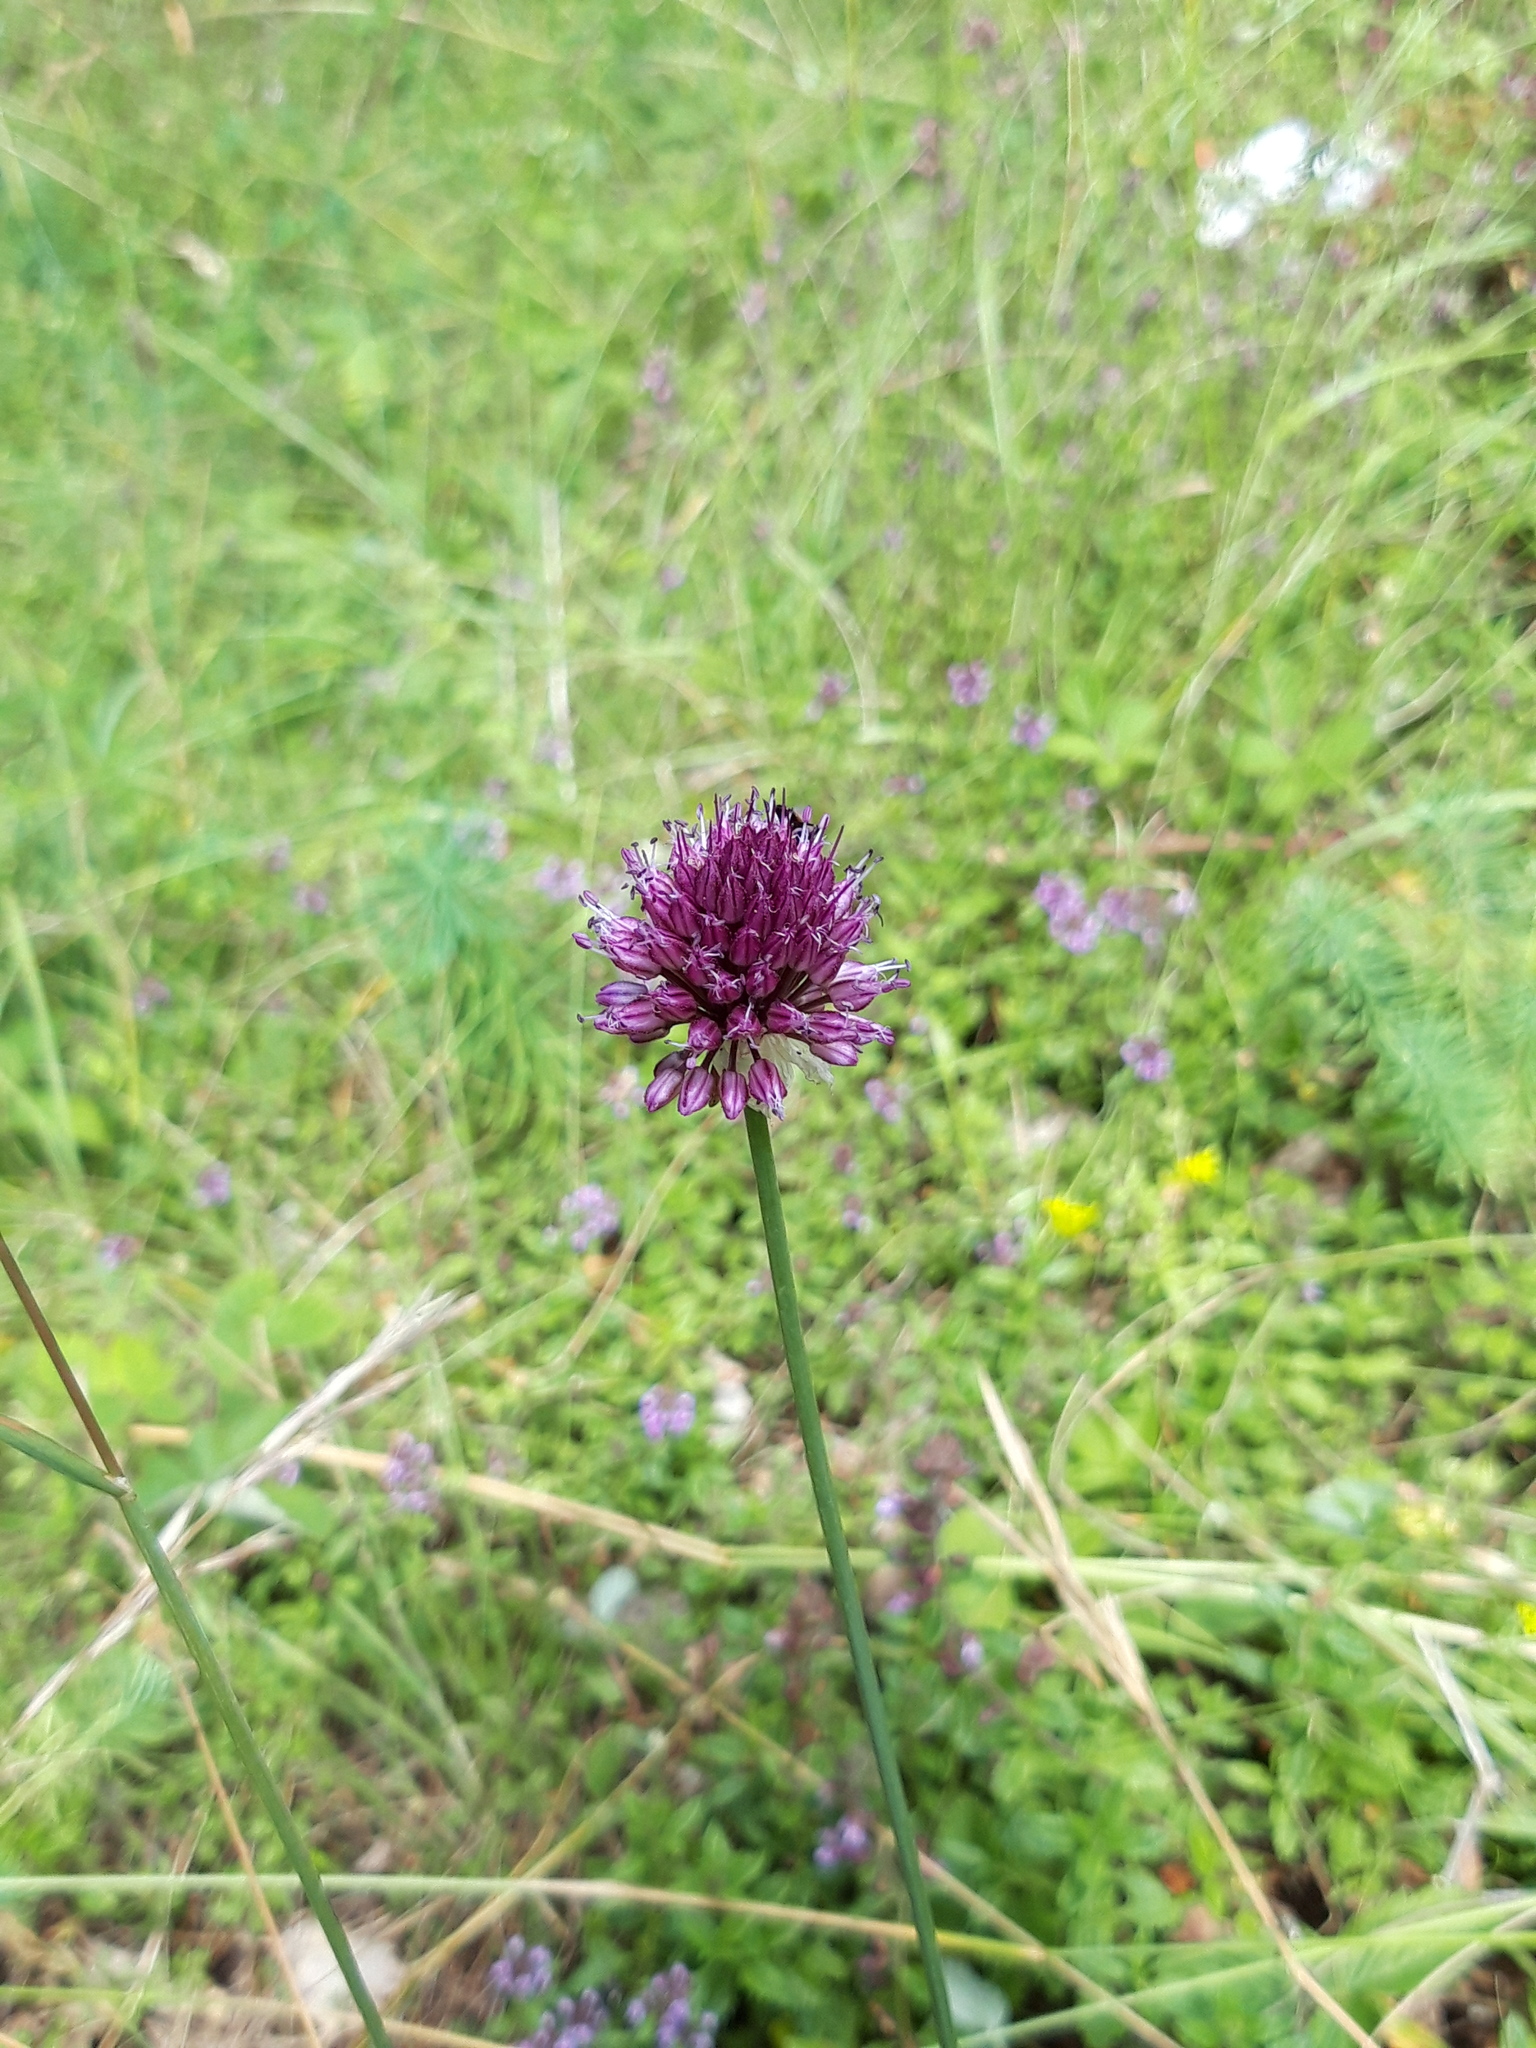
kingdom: Plantae
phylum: Tracheophyta
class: Liliopsida
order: Asparagales
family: Amaryllidaceae
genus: Allium
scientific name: Allium sphaerocephalon
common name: Round-headed leek
